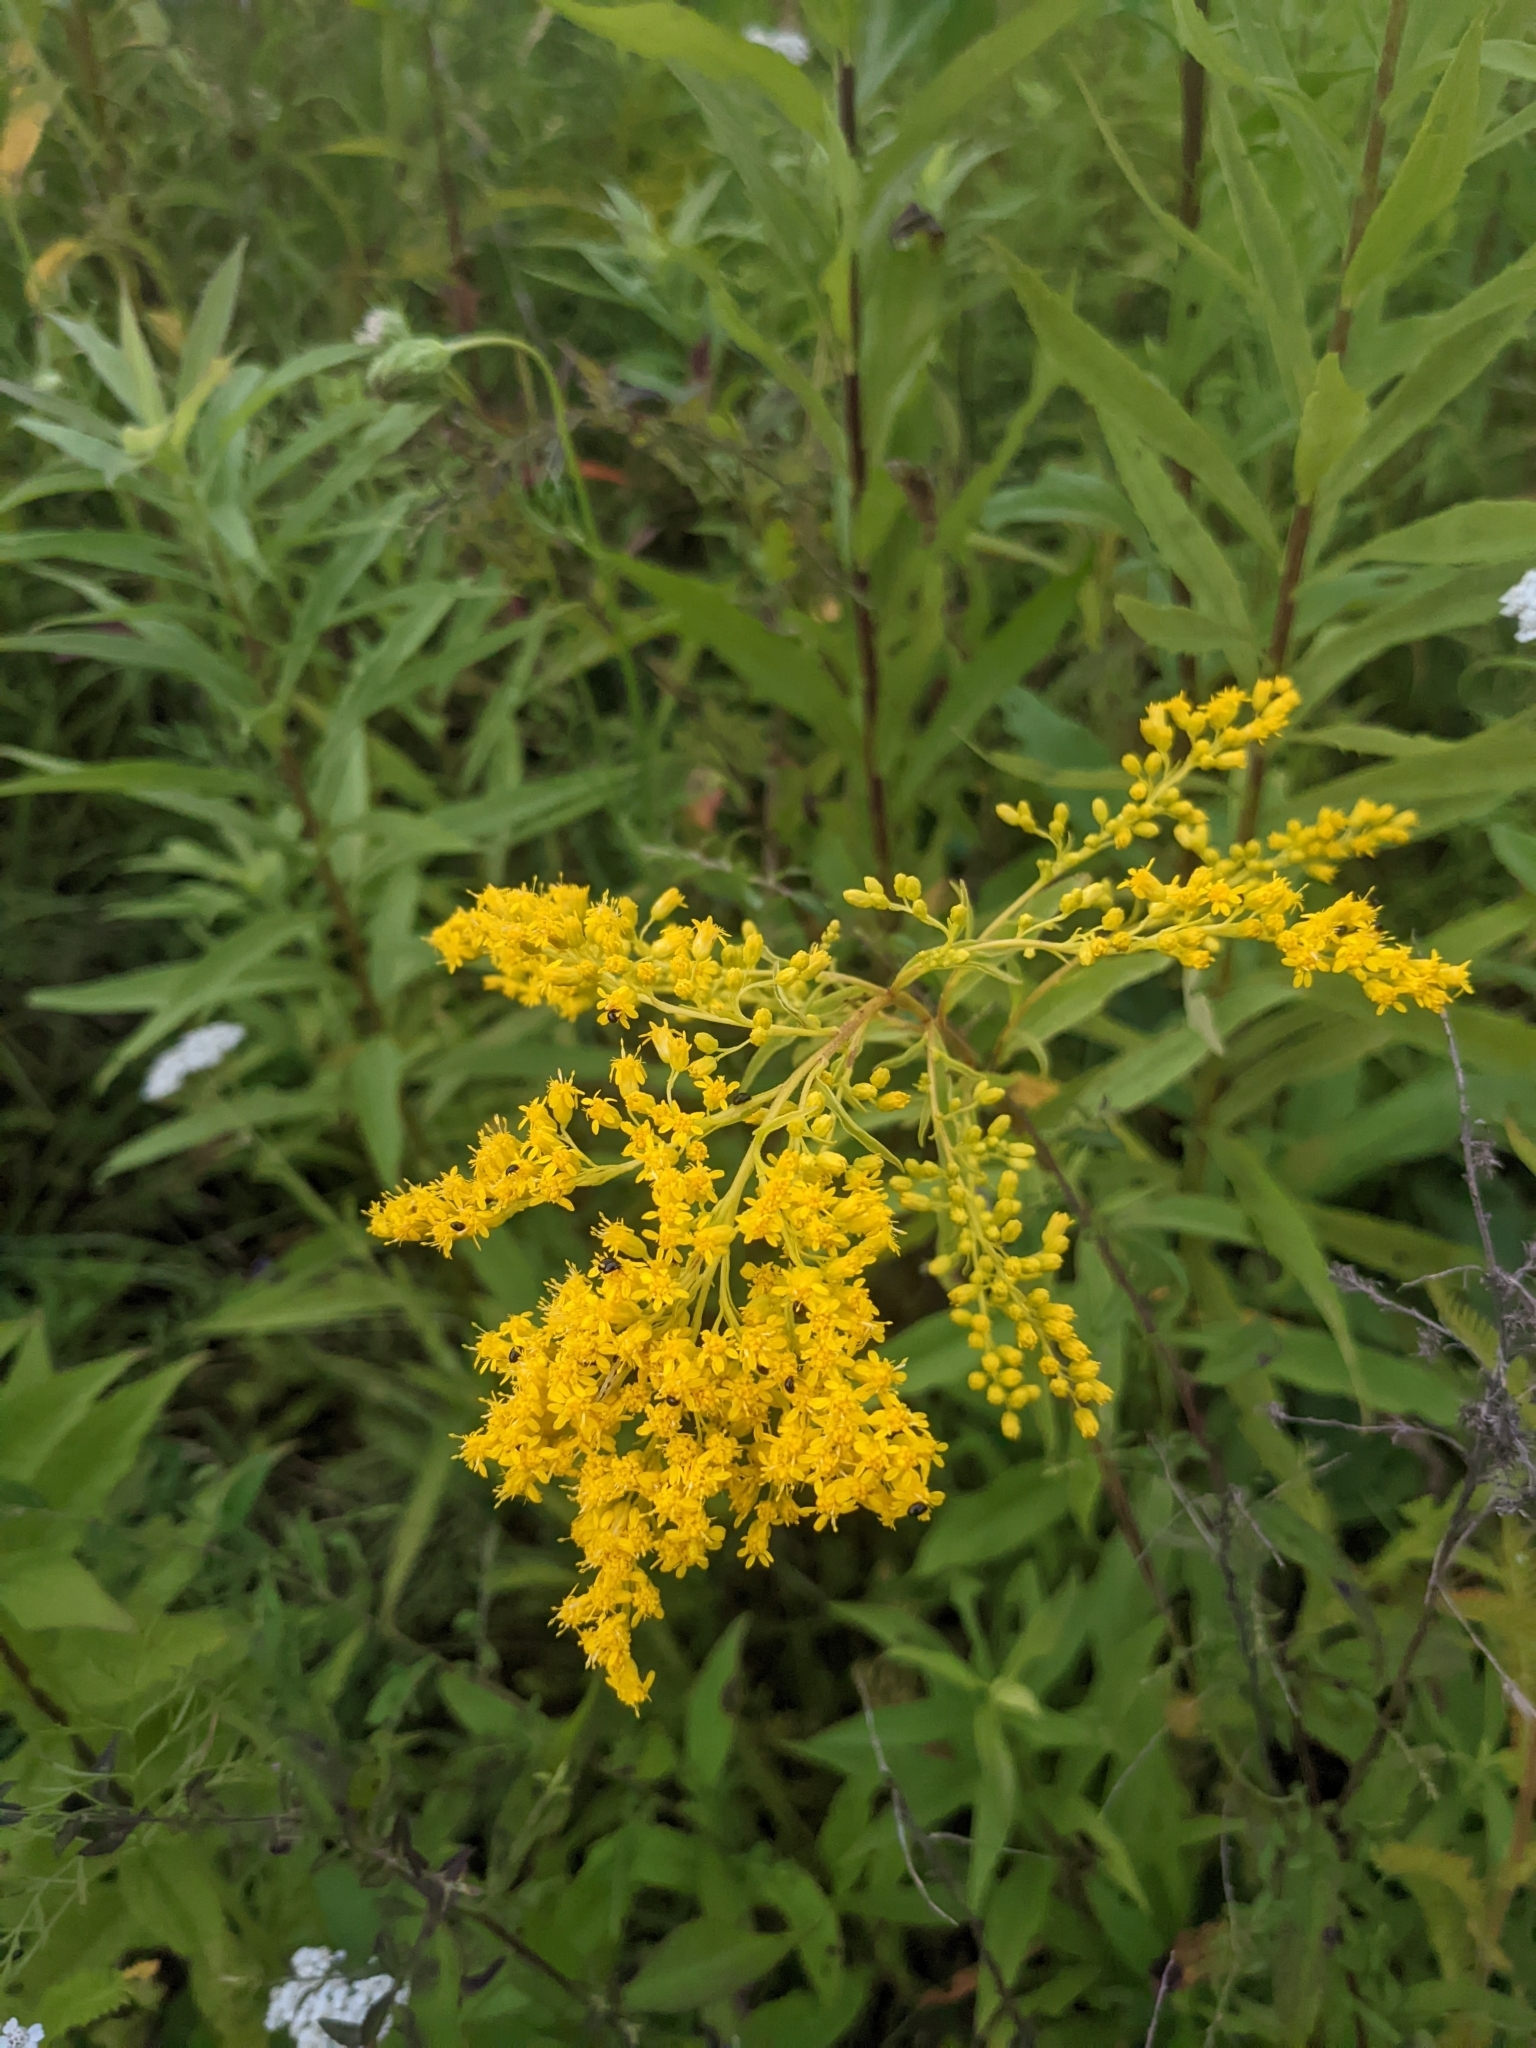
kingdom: Plantae
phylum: Tracheophyta
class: Magnoliopsida
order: Asterales
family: Asteraceae
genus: Solidago
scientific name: Solidago juncea
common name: Early goldenrod
